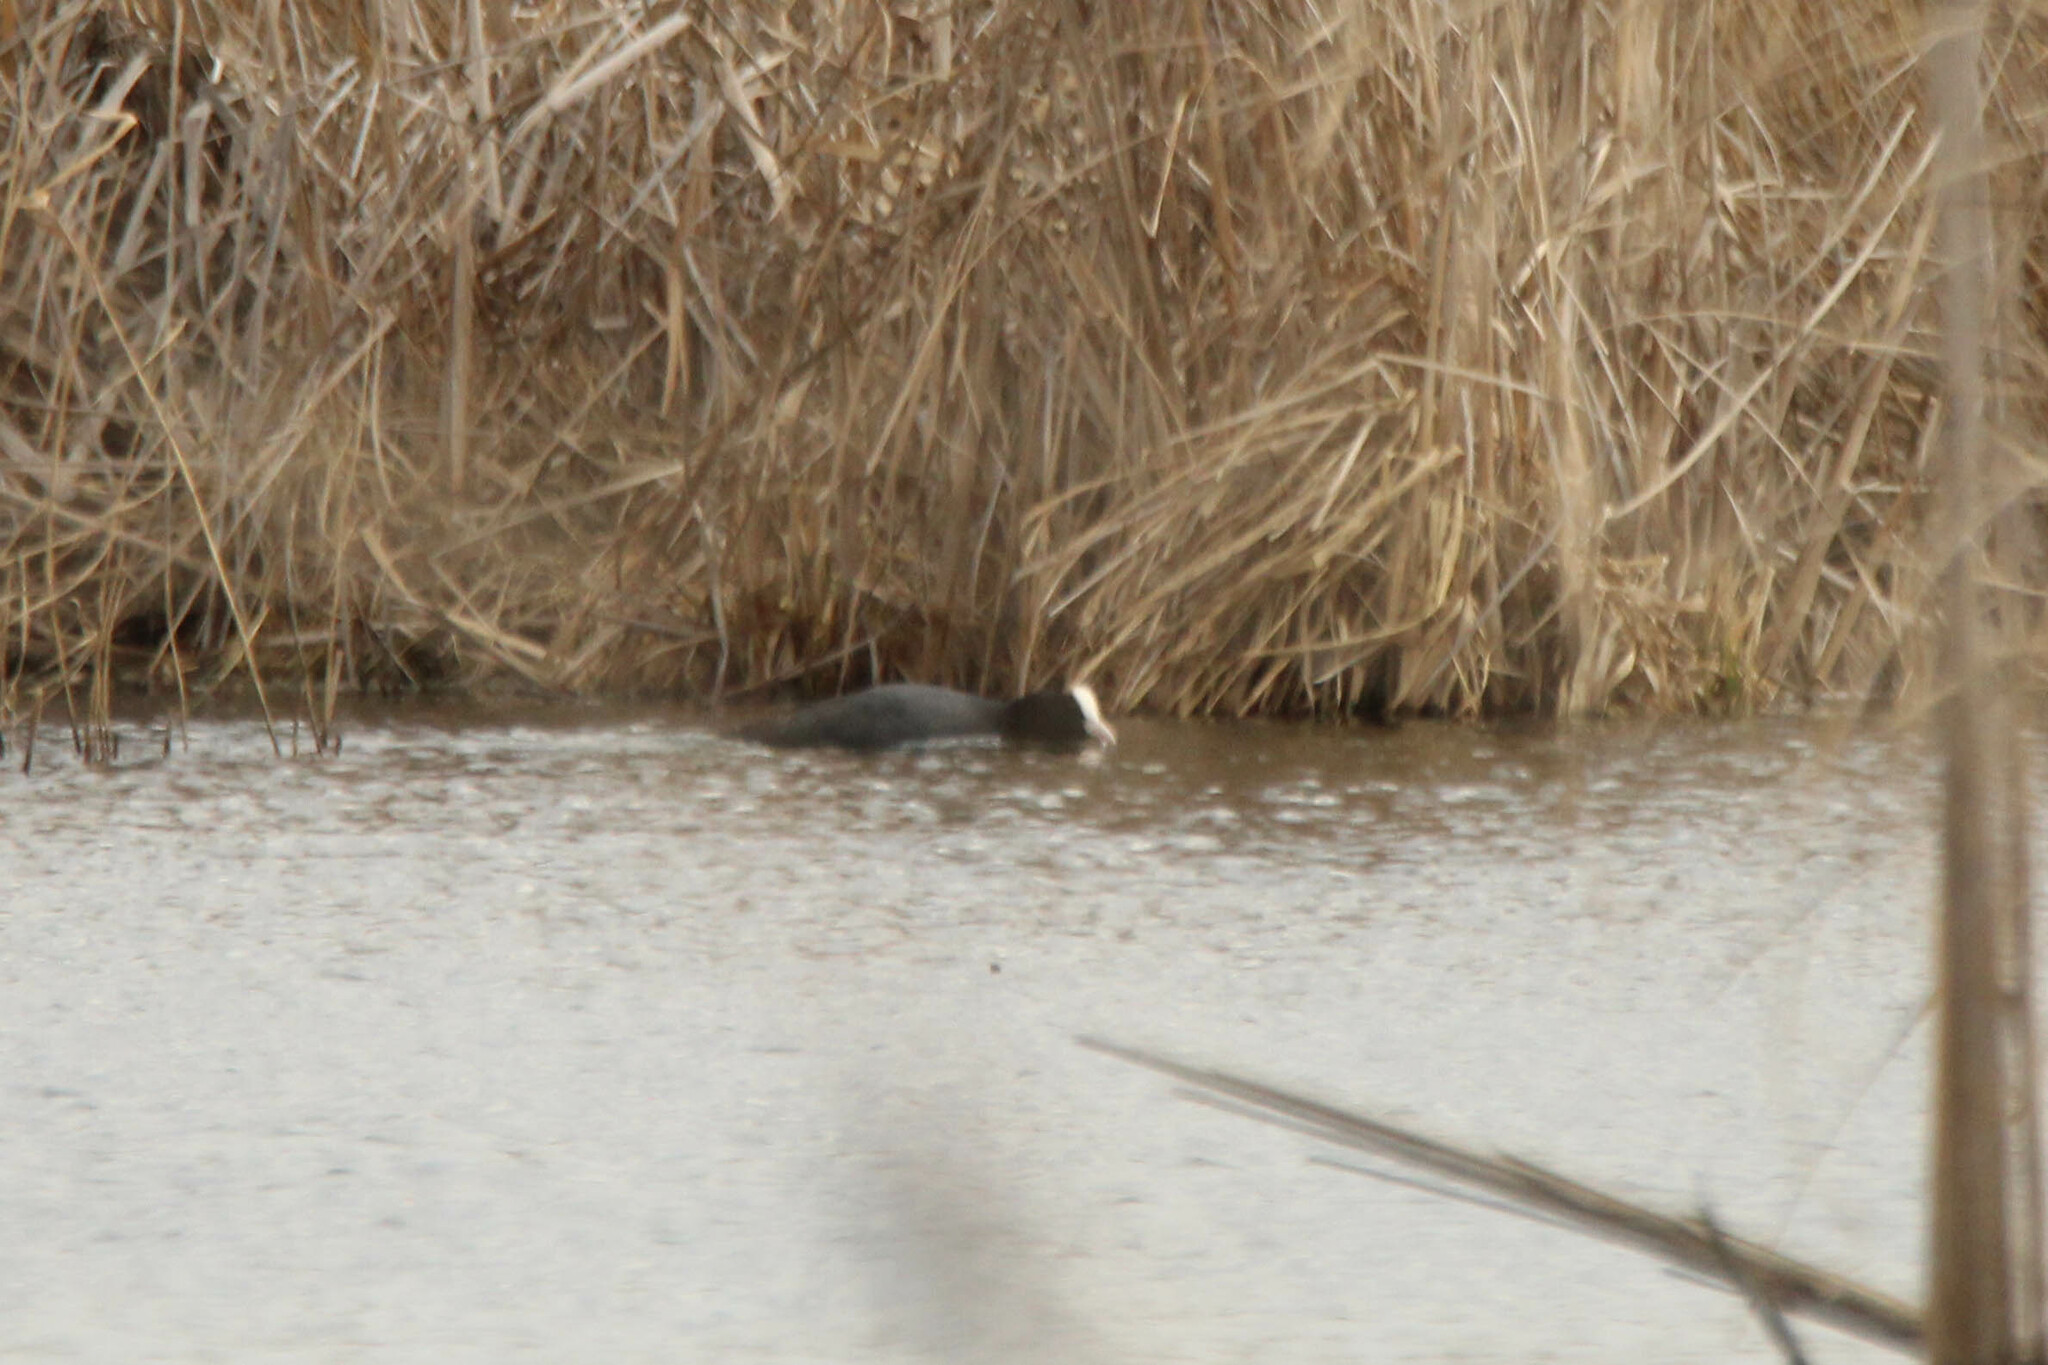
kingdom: Animalia
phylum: Chordata
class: Aves
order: Gruiformes
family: Rallidae
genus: Fulica
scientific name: Fulica atra
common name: Eurasian coot
